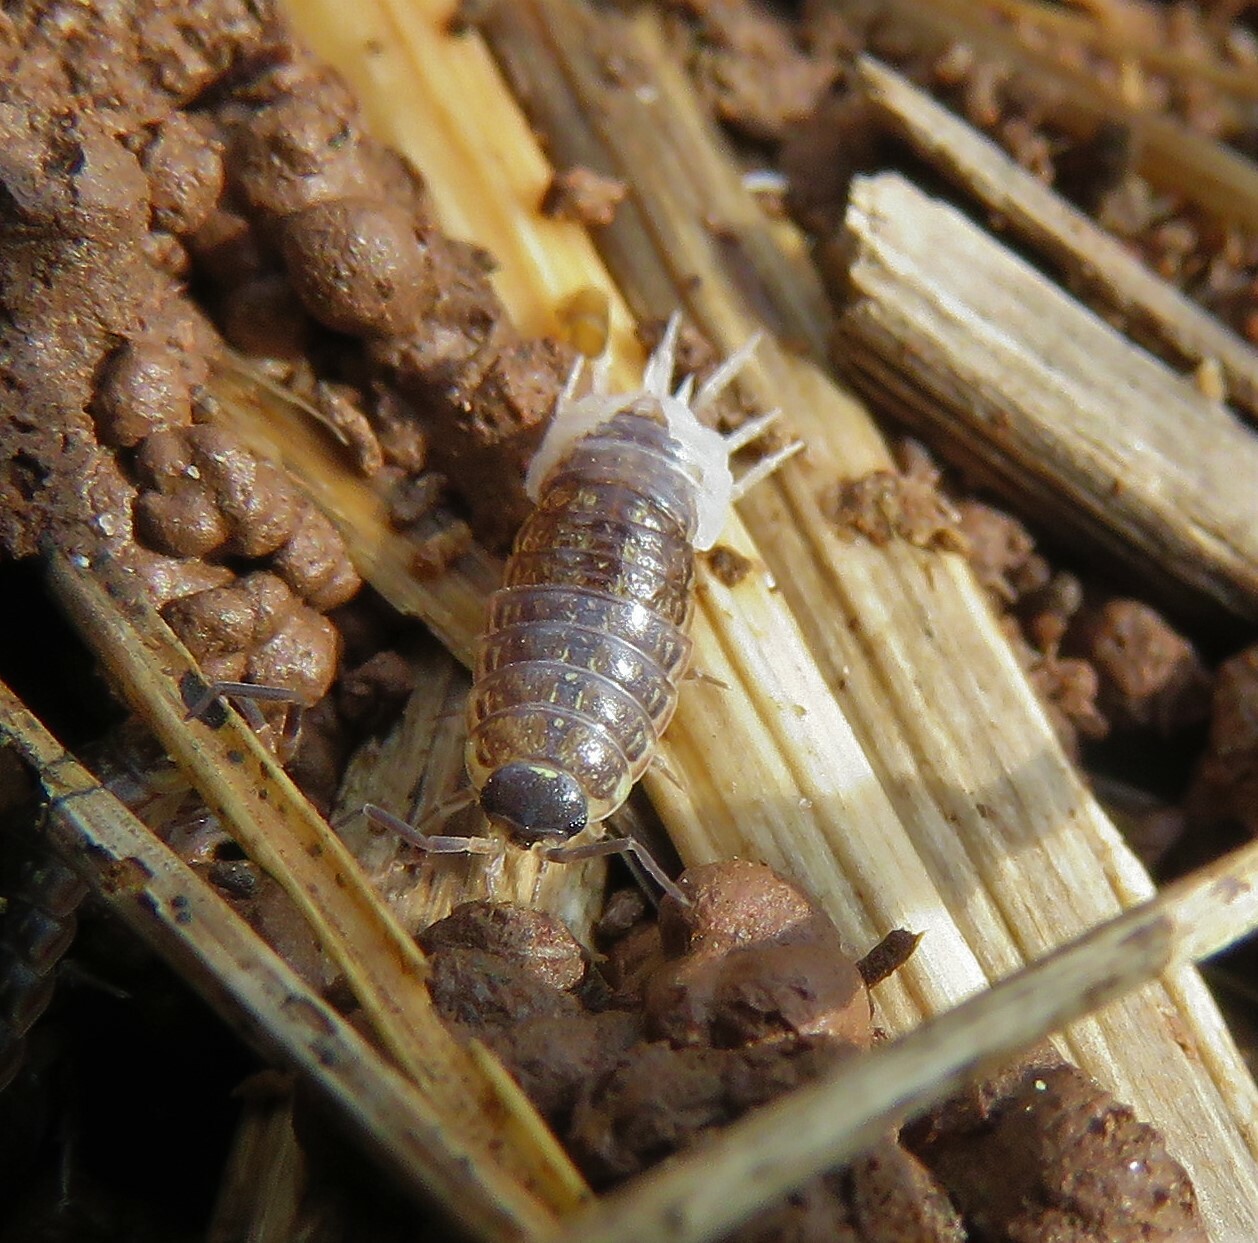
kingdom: Animalia
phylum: Arthropoda
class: Malacostraca
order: Isopoda
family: Philosciidae
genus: Philoscia
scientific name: Philoscia muscorum
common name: Common striped woodlouse
